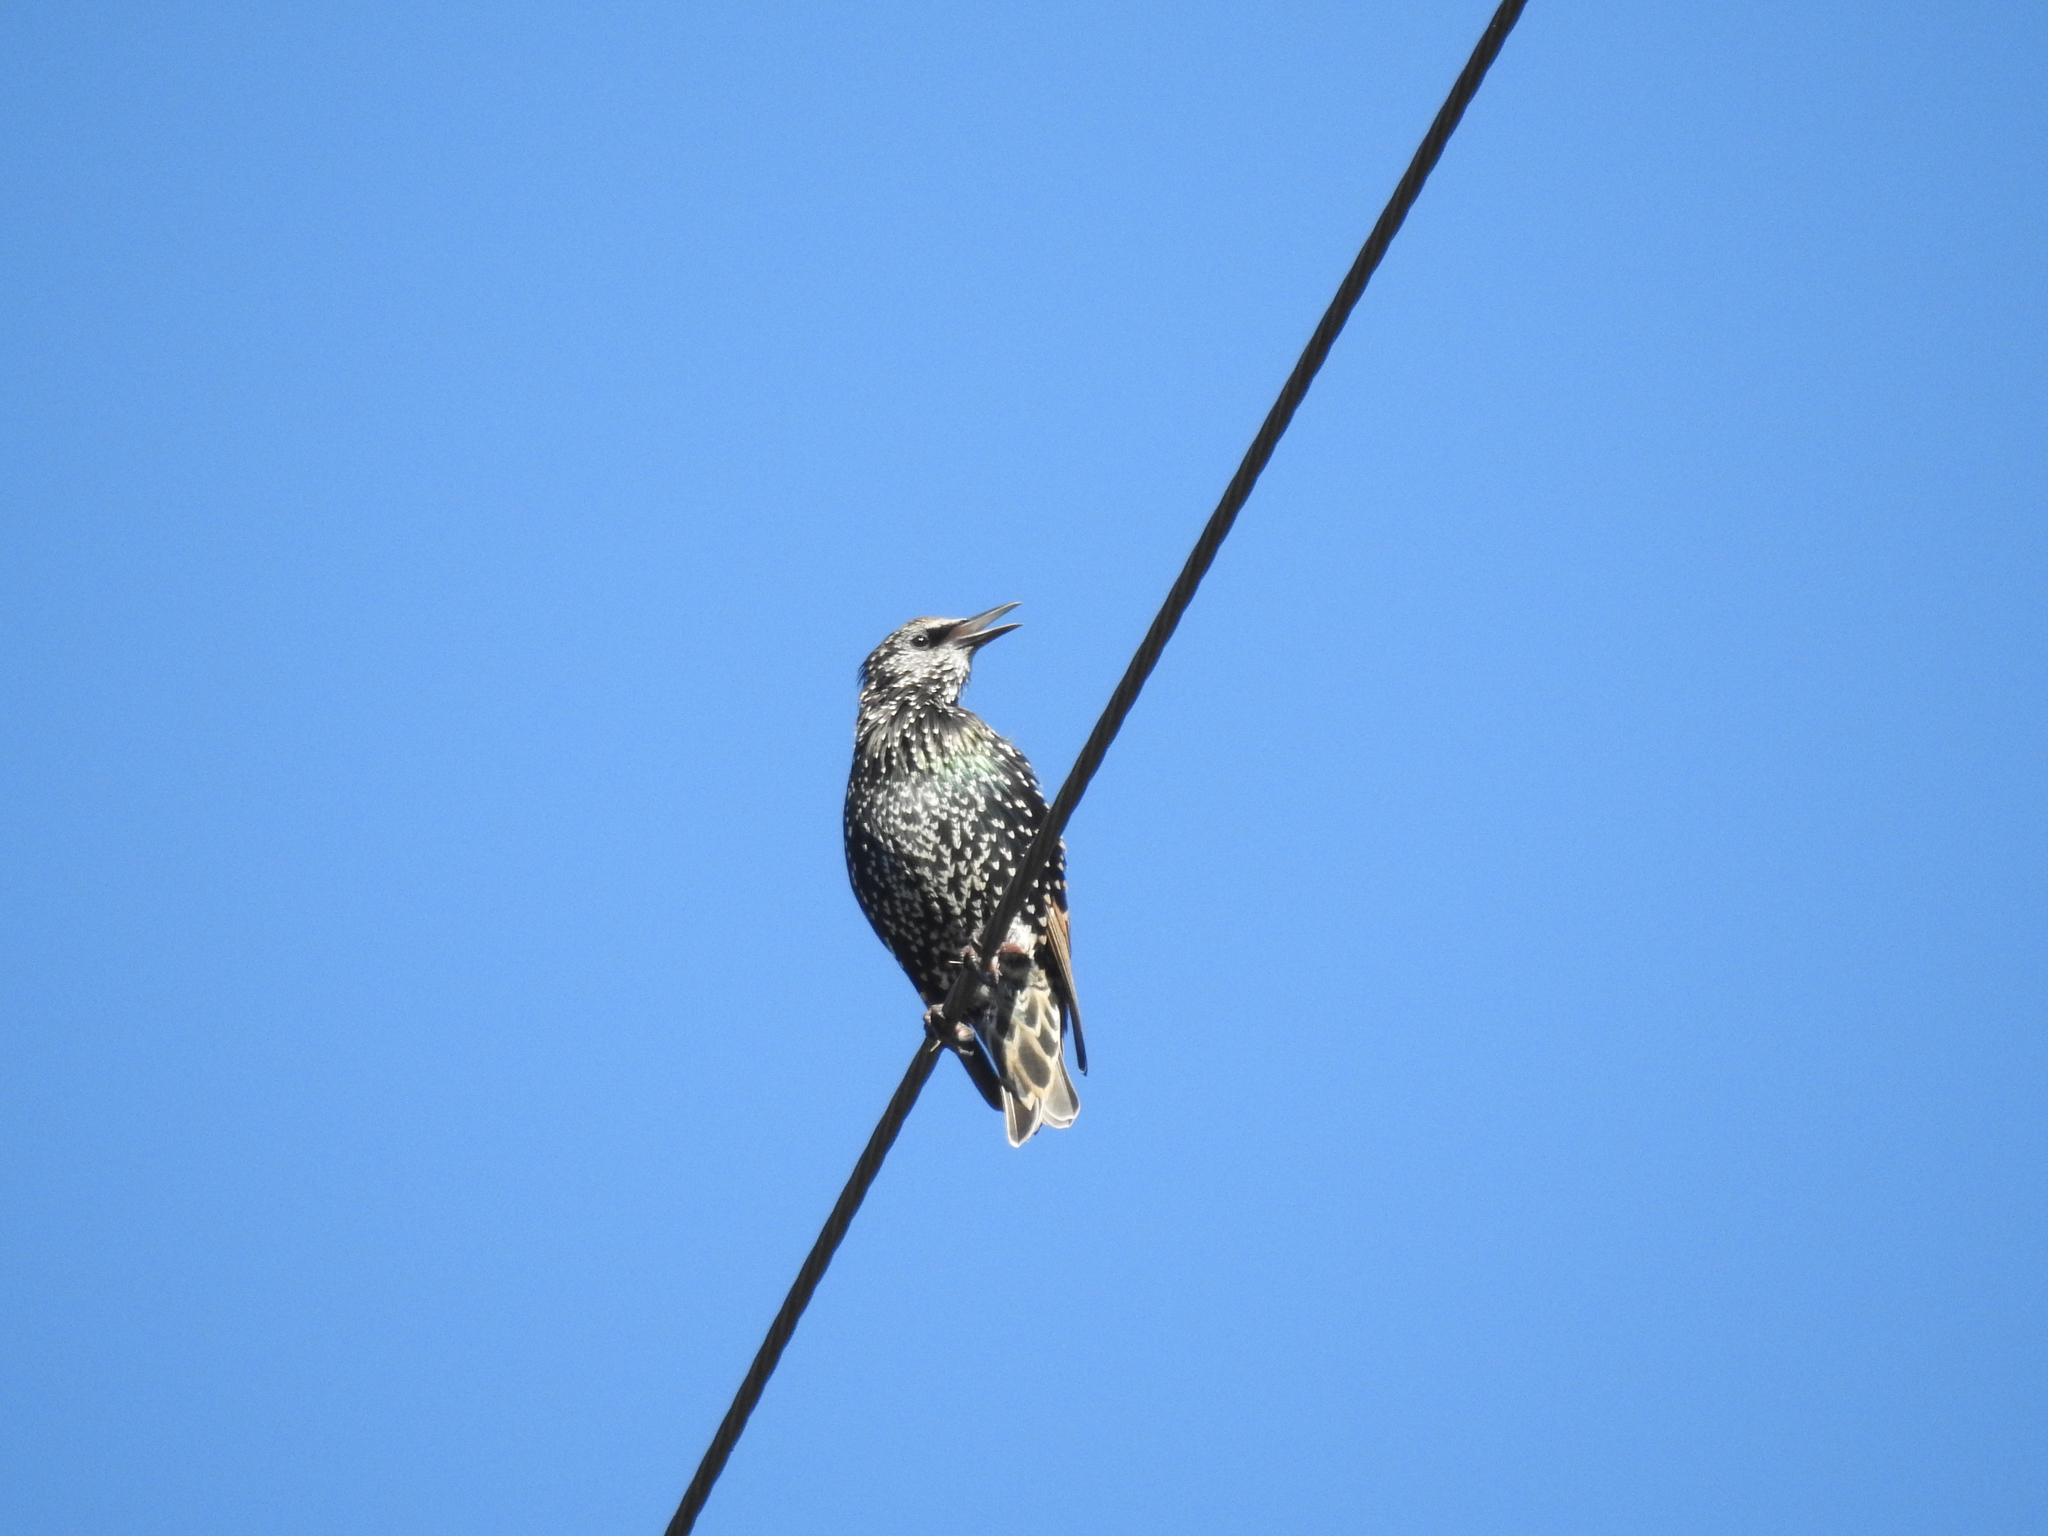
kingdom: Animalia
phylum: Chordata
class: Aves
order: Passeriformes
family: Sturnidae
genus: Sturnus
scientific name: Sturnus vulgaris
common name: Common starling
